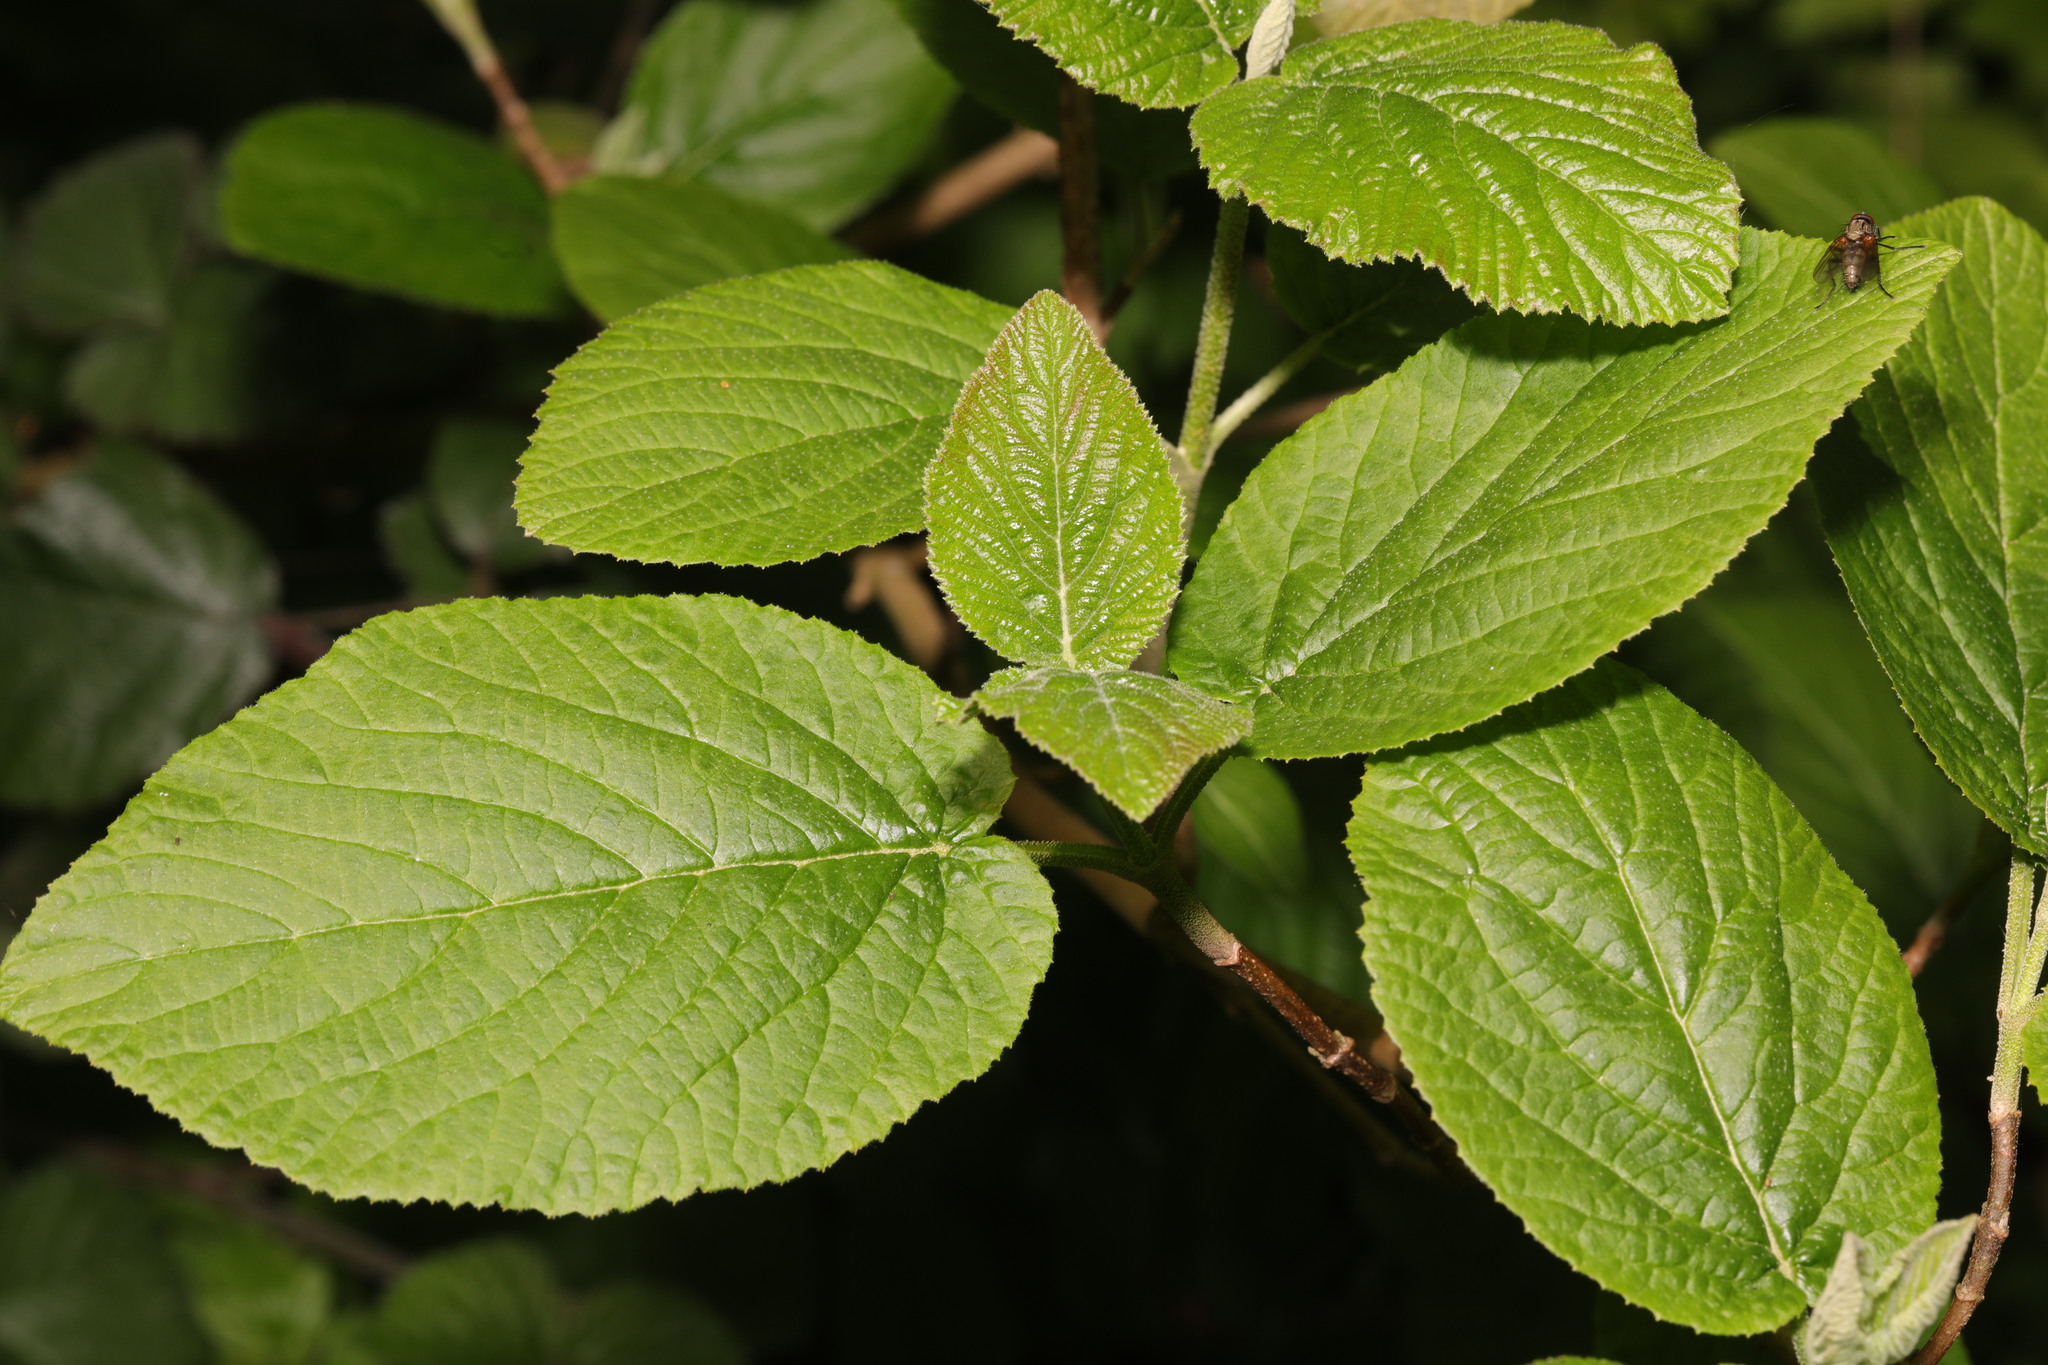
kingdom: Plantae
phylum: Tracheophyta
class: Magnoliopsida
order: Dipsacales
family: Viburnaceae
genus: Viburnum
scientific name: Viburnum lantana
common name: Wayfaring tree
